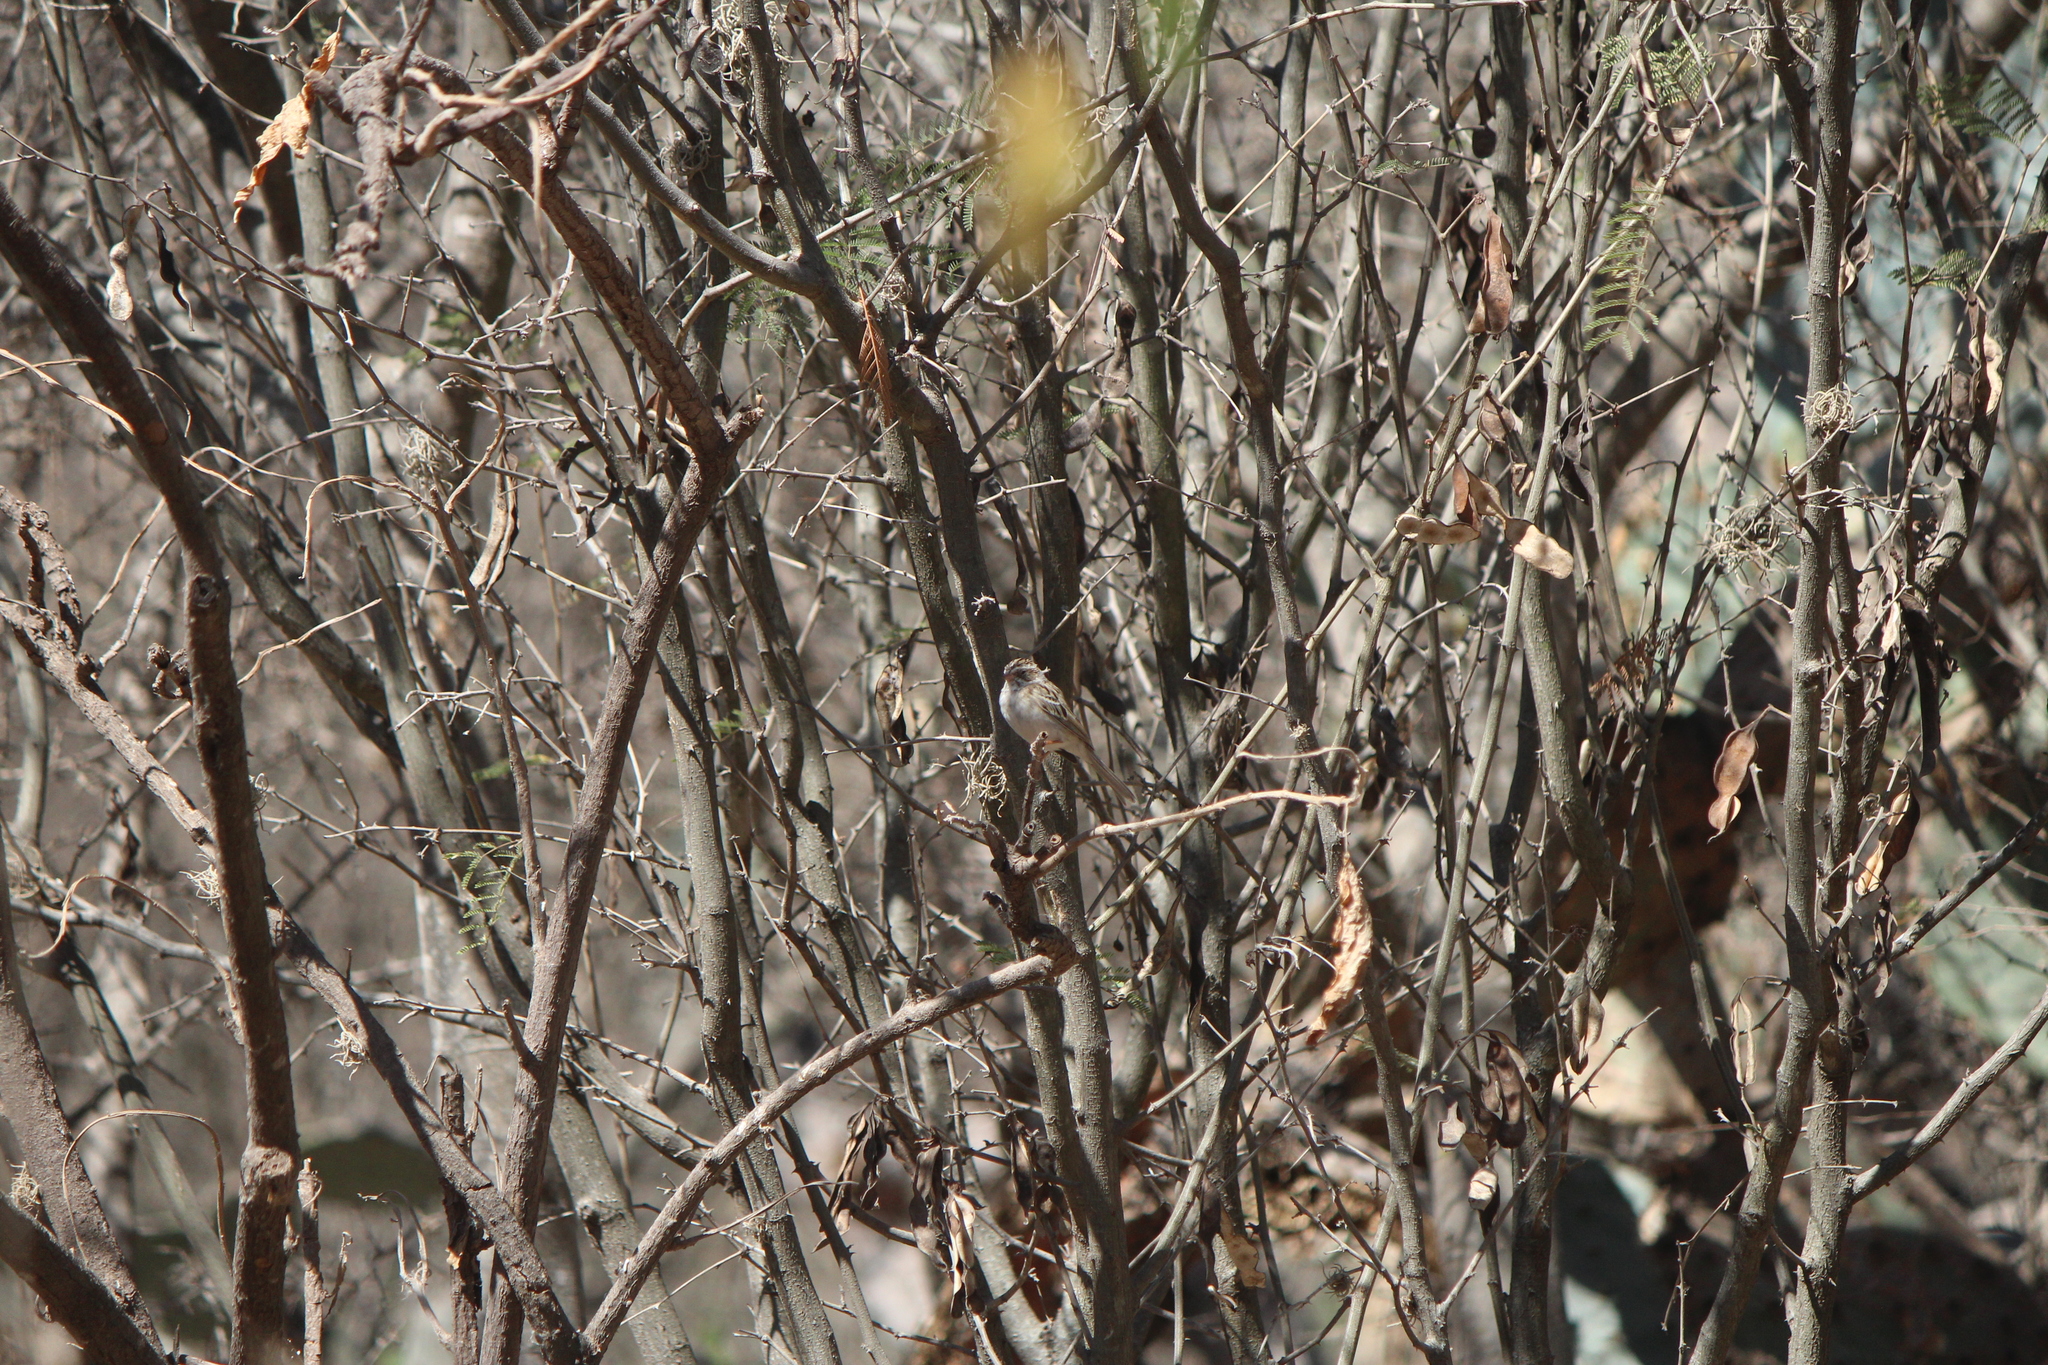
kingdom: Animalia
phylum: Chordata
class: Aves
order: Passeriformes
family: Passerellidae
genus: Spizella
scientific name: Spizella pallida
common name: Clay-colored sparrow
